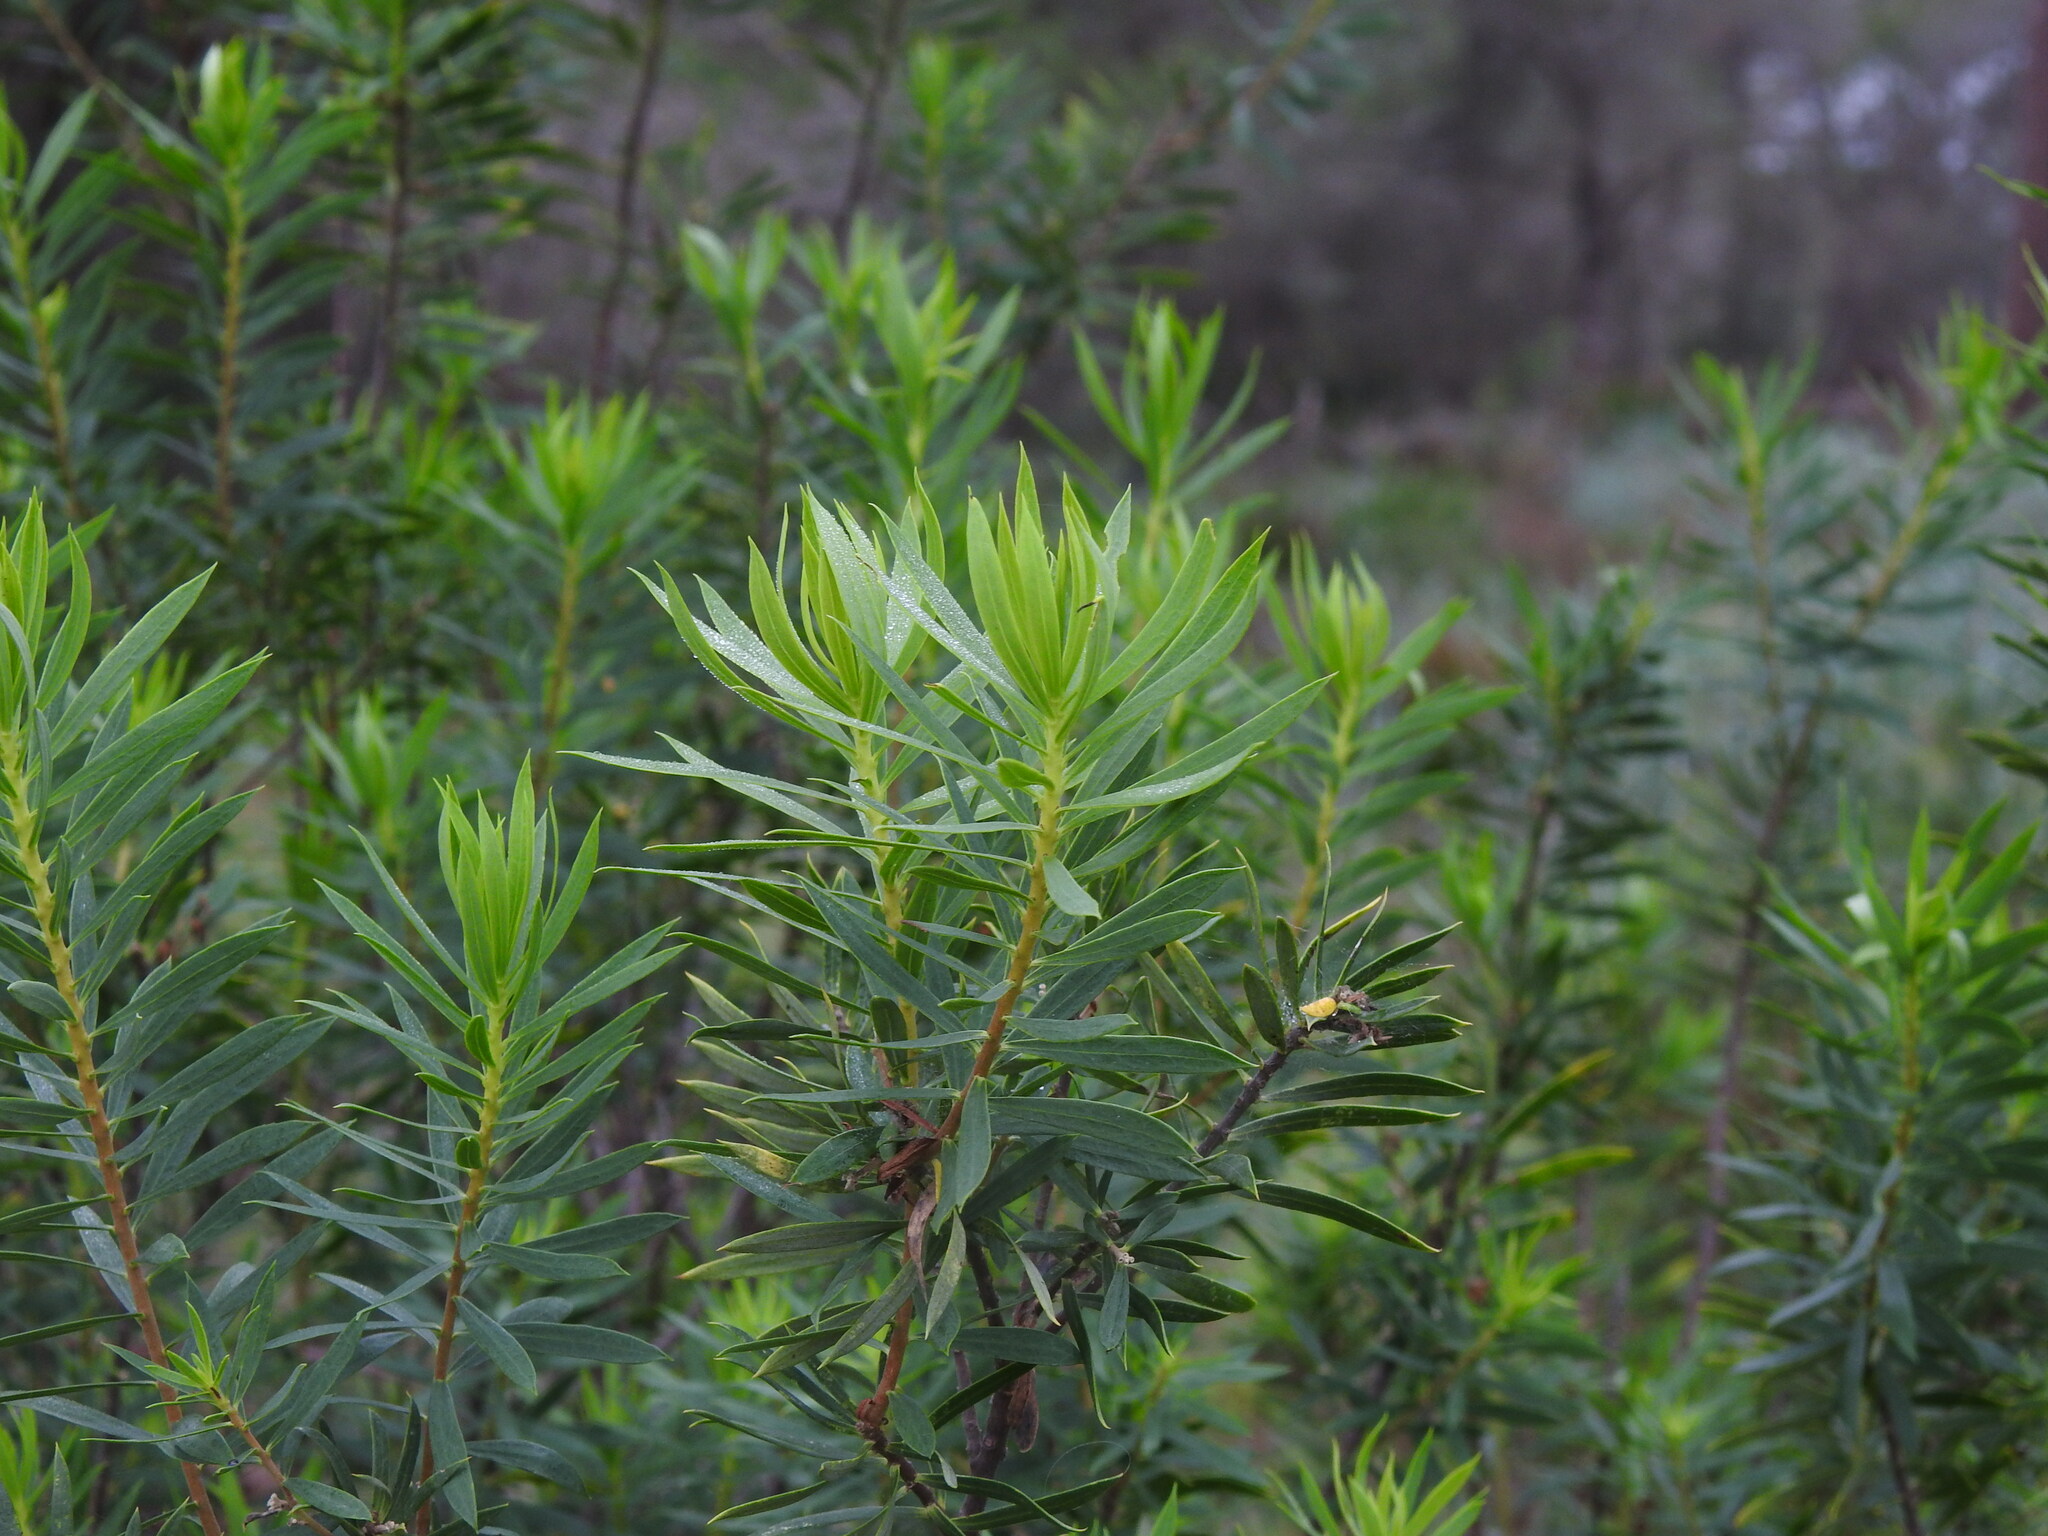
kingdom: Plantae
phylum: Tracheophyta
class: Magnoliopsida
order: Malvales
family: Thymelaeaceae
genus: Daphne
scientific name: Daphne gnidium
